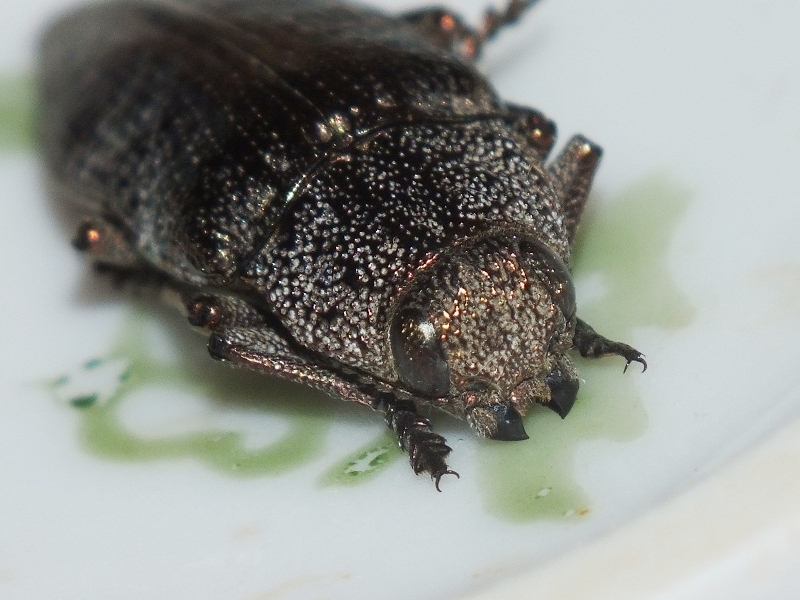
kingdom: Animalia
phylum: Arthropoda
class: Insecta
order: Coleoptera
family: Buprestidae
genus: Dicerca
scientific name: Dicerca aenea
